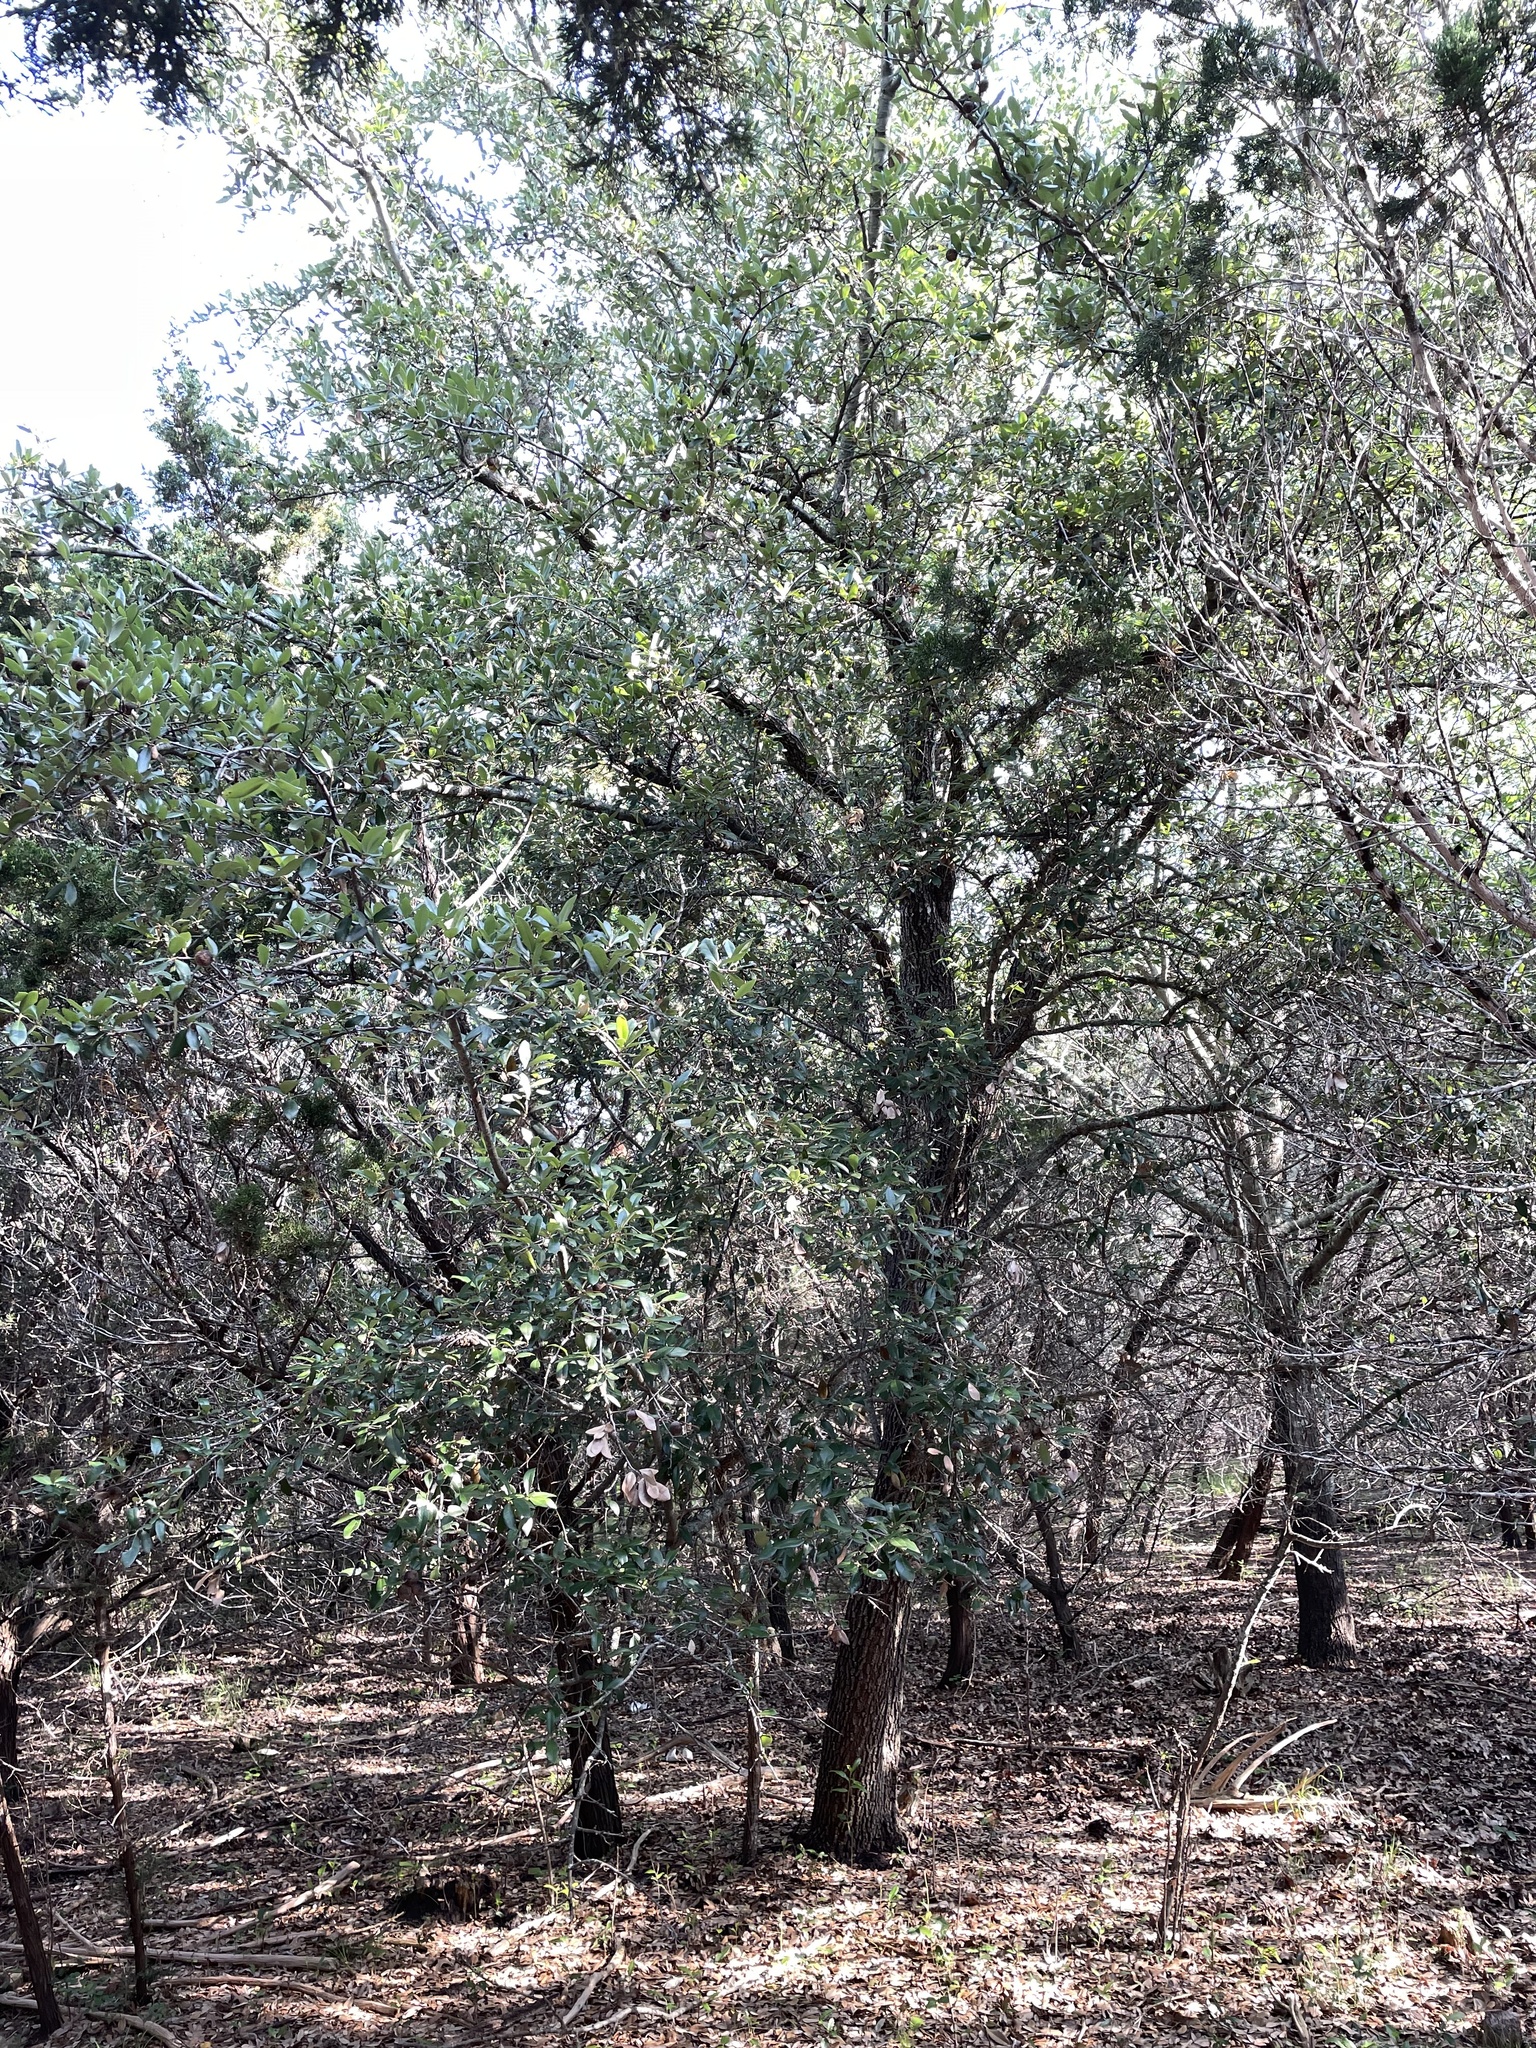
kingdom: Plantae
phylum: Tracheophyta
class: Magnoliopsida
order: Fagales
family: Fagaceae
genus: Quercus
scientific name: Quercus fusiformis
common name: Texas live oak
